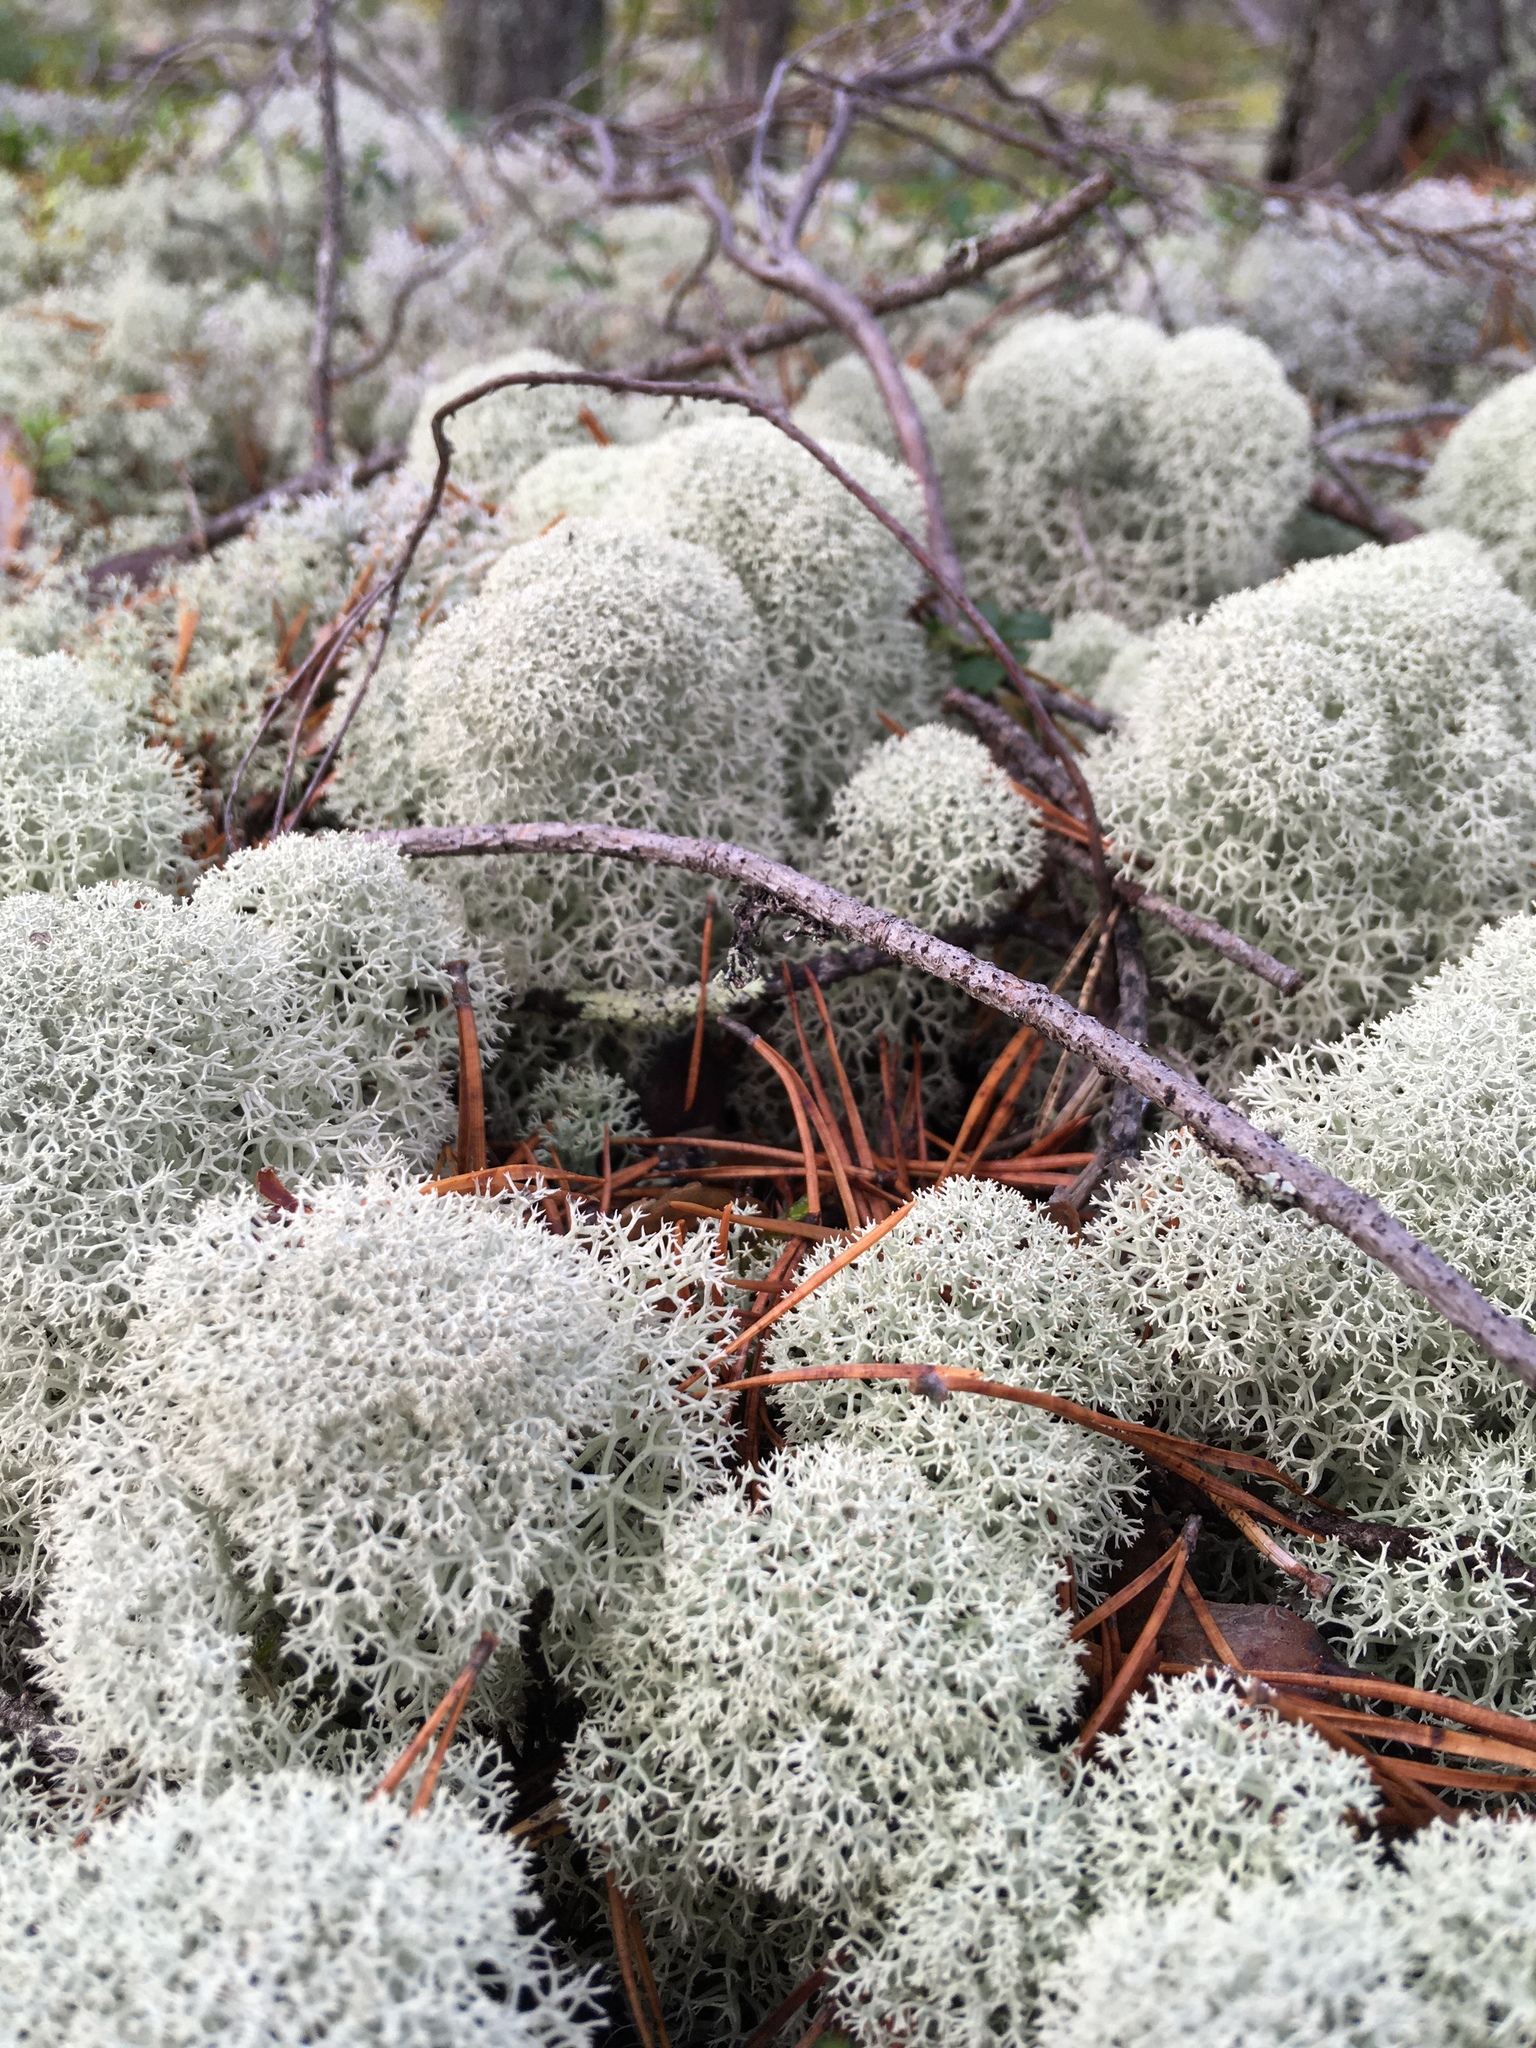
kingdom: Fungi
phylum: Ascomycota
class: Lecanoromycetes
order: Lecanorales
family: Cladoniaceae
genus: Cladonia
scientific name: Cladonia stellaris
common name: Star-tipped reindeer lichen
